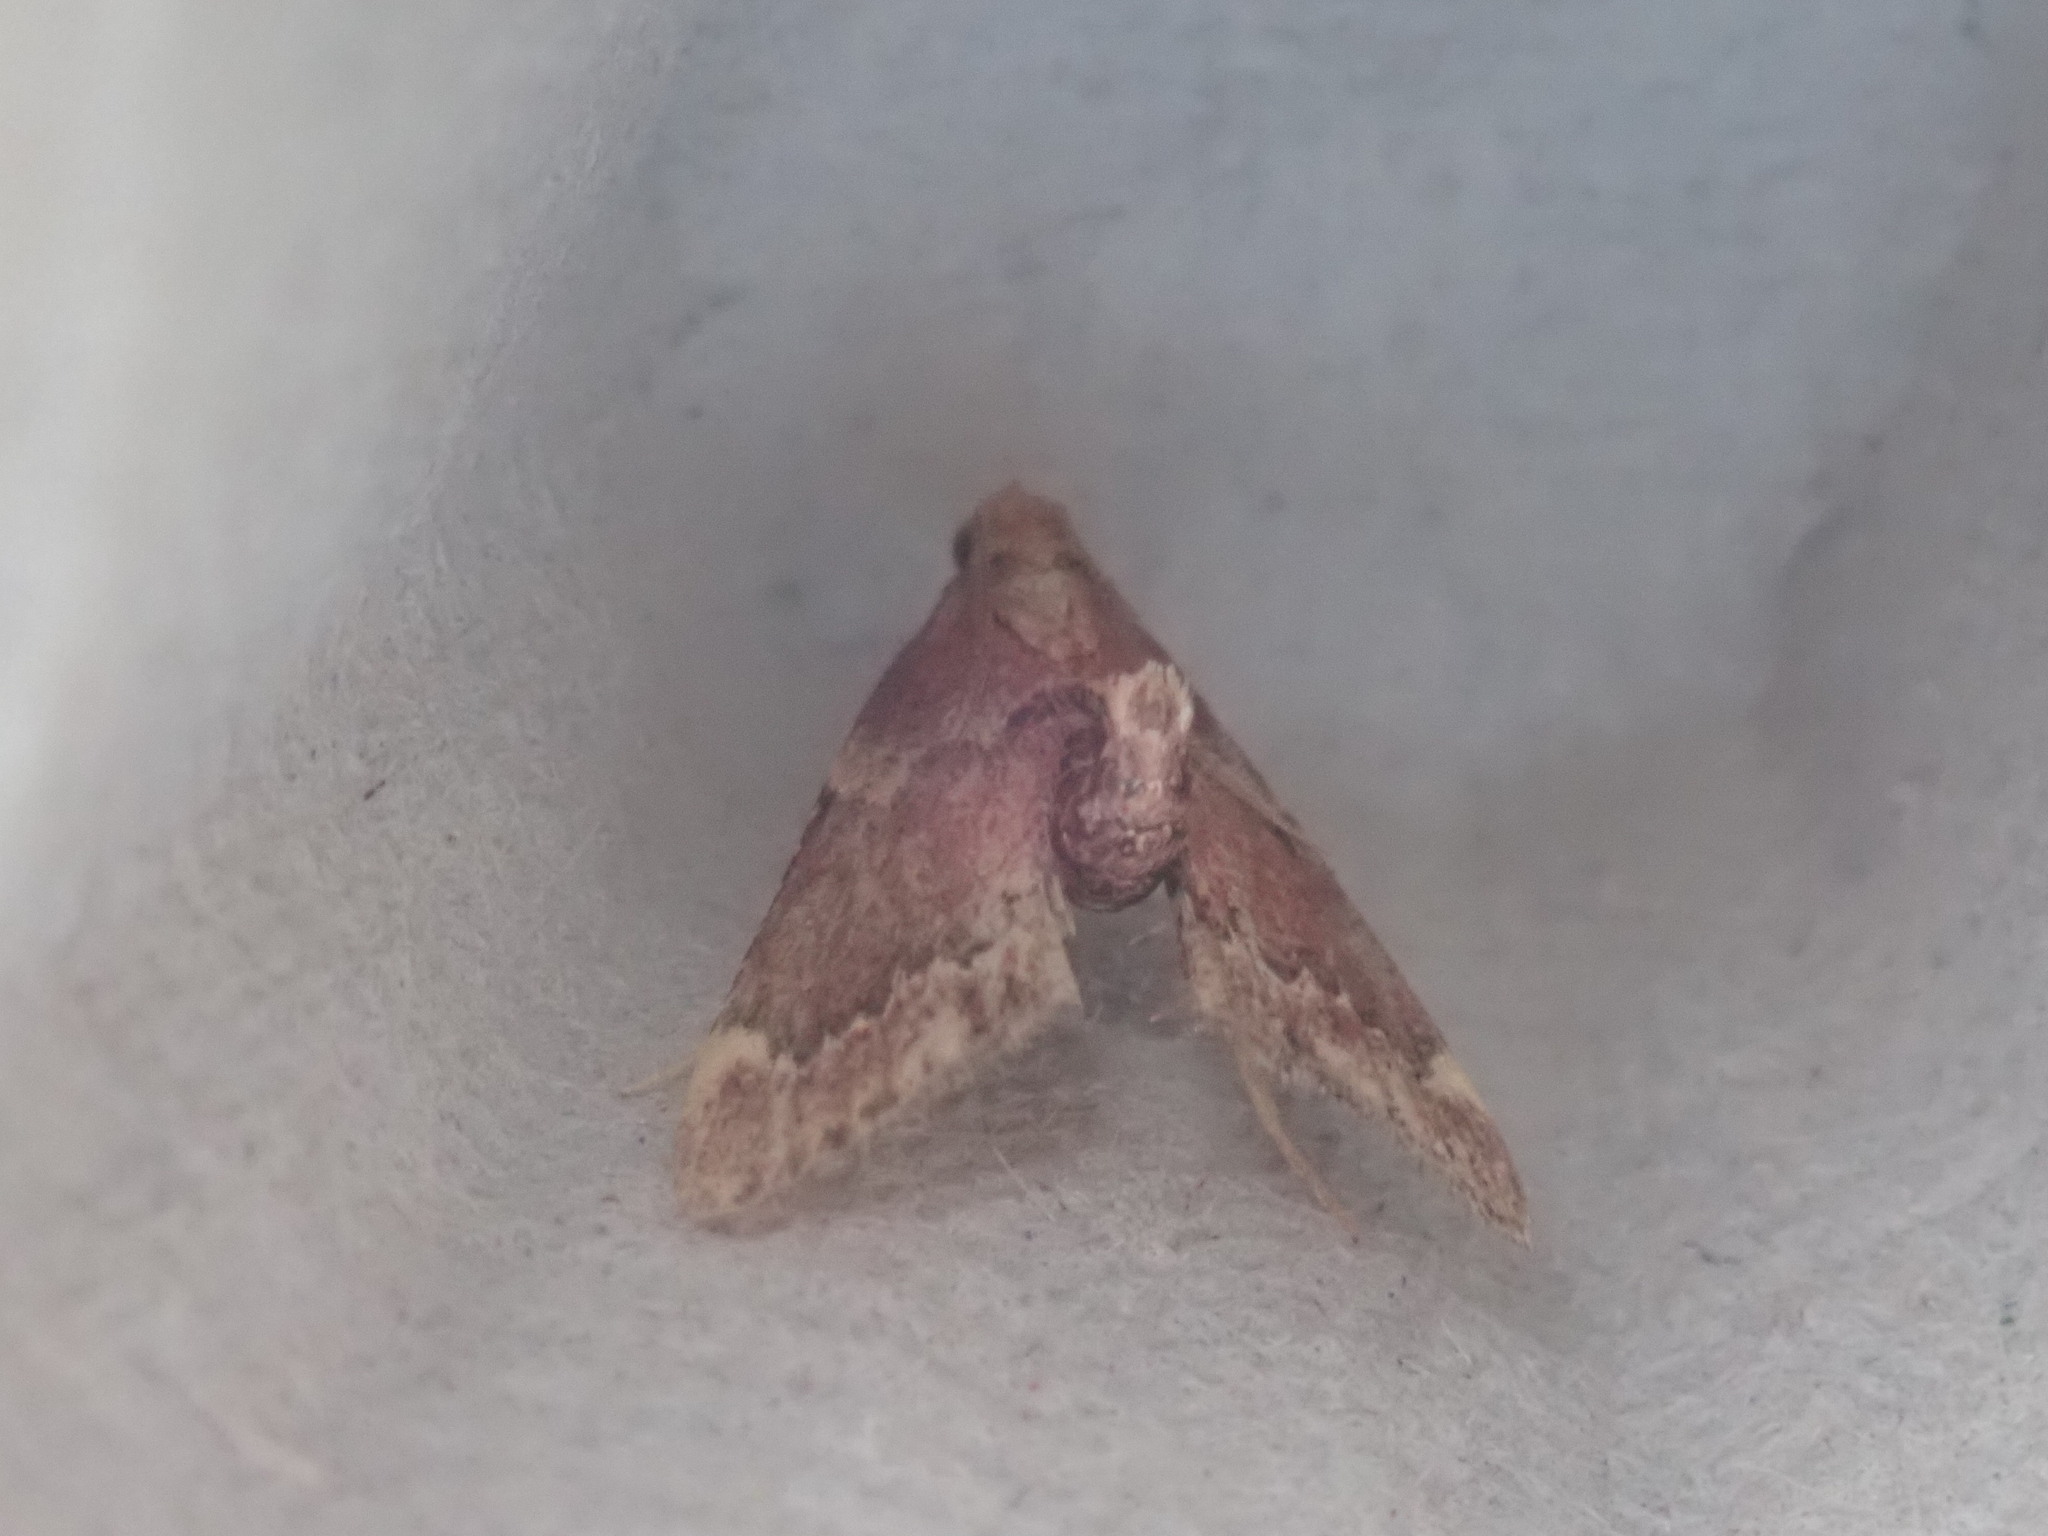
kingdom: Animalia
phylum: Arthropoda
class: Insecta
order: Lepidoptera
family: Pyralidae
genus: Hypsopygia
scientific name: Hypsopygia intermedialis
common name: Red-shawled moth
